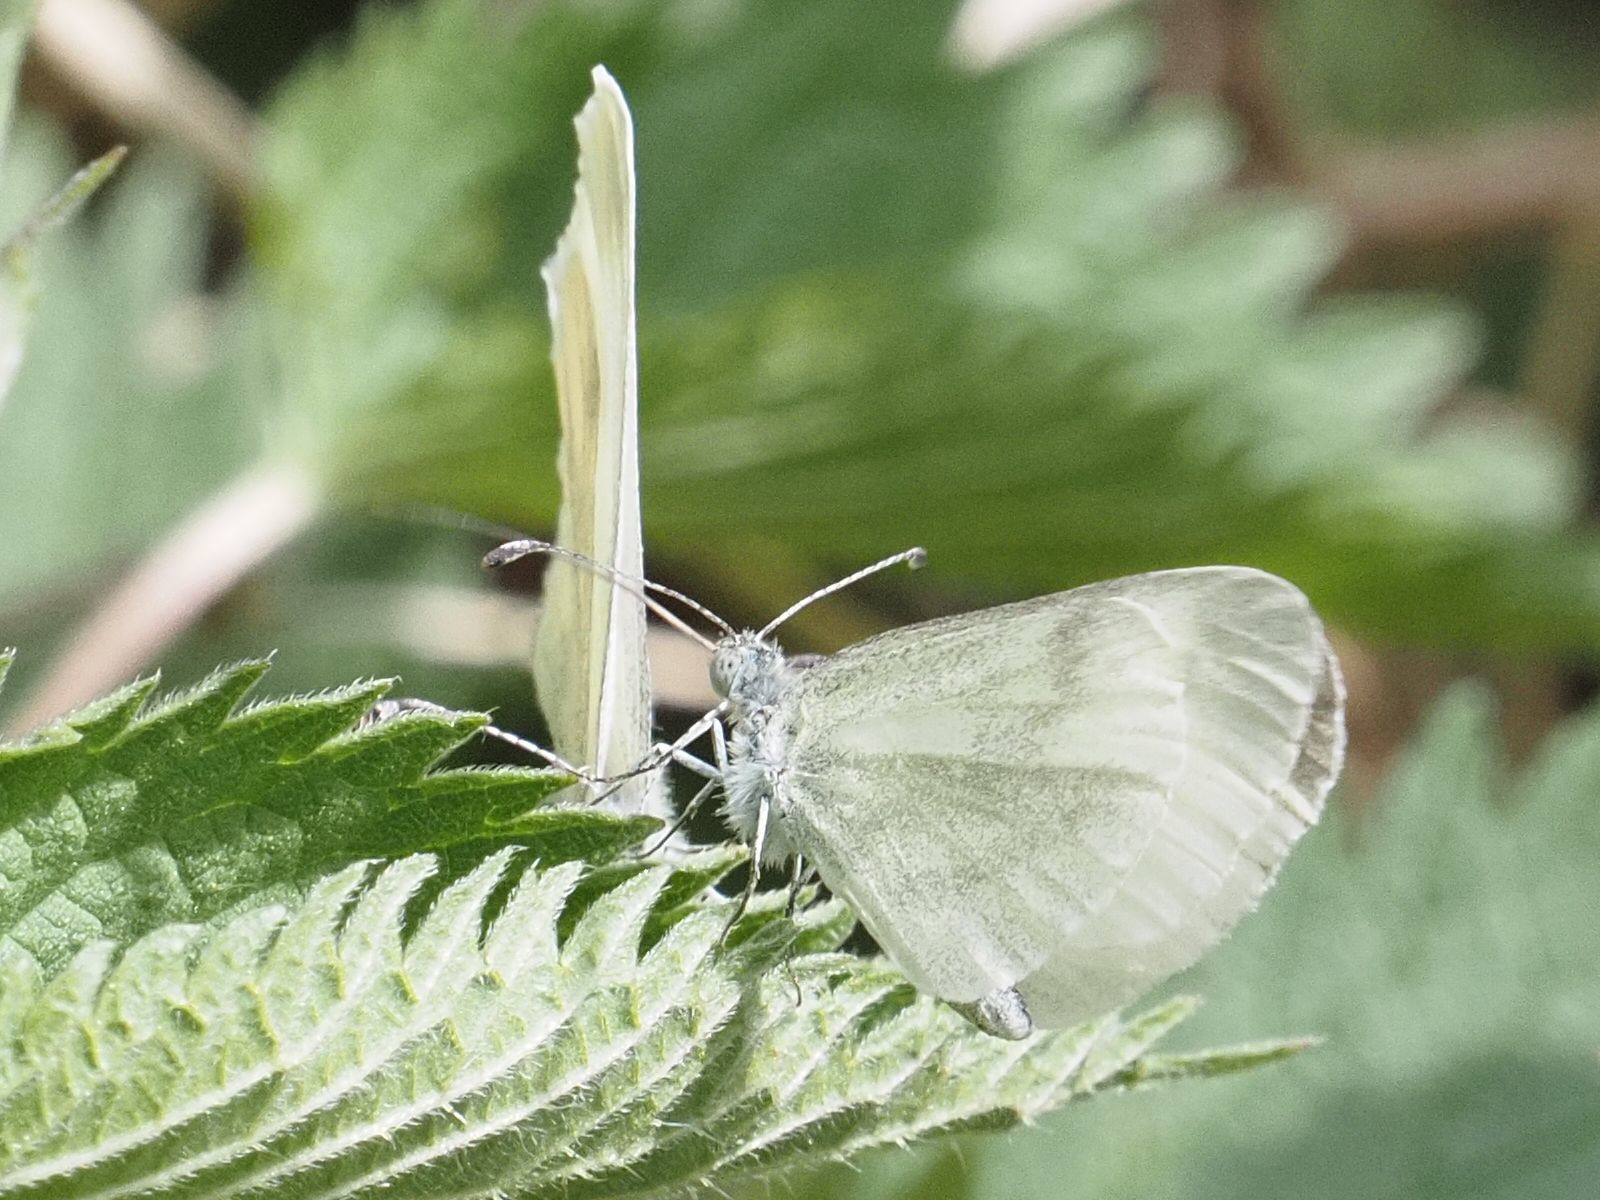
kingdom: Animalia
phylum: Arthropoda
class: Insecta
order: Lepidoptera
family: Pieridae
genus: Leptidea
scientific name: Leptidea
